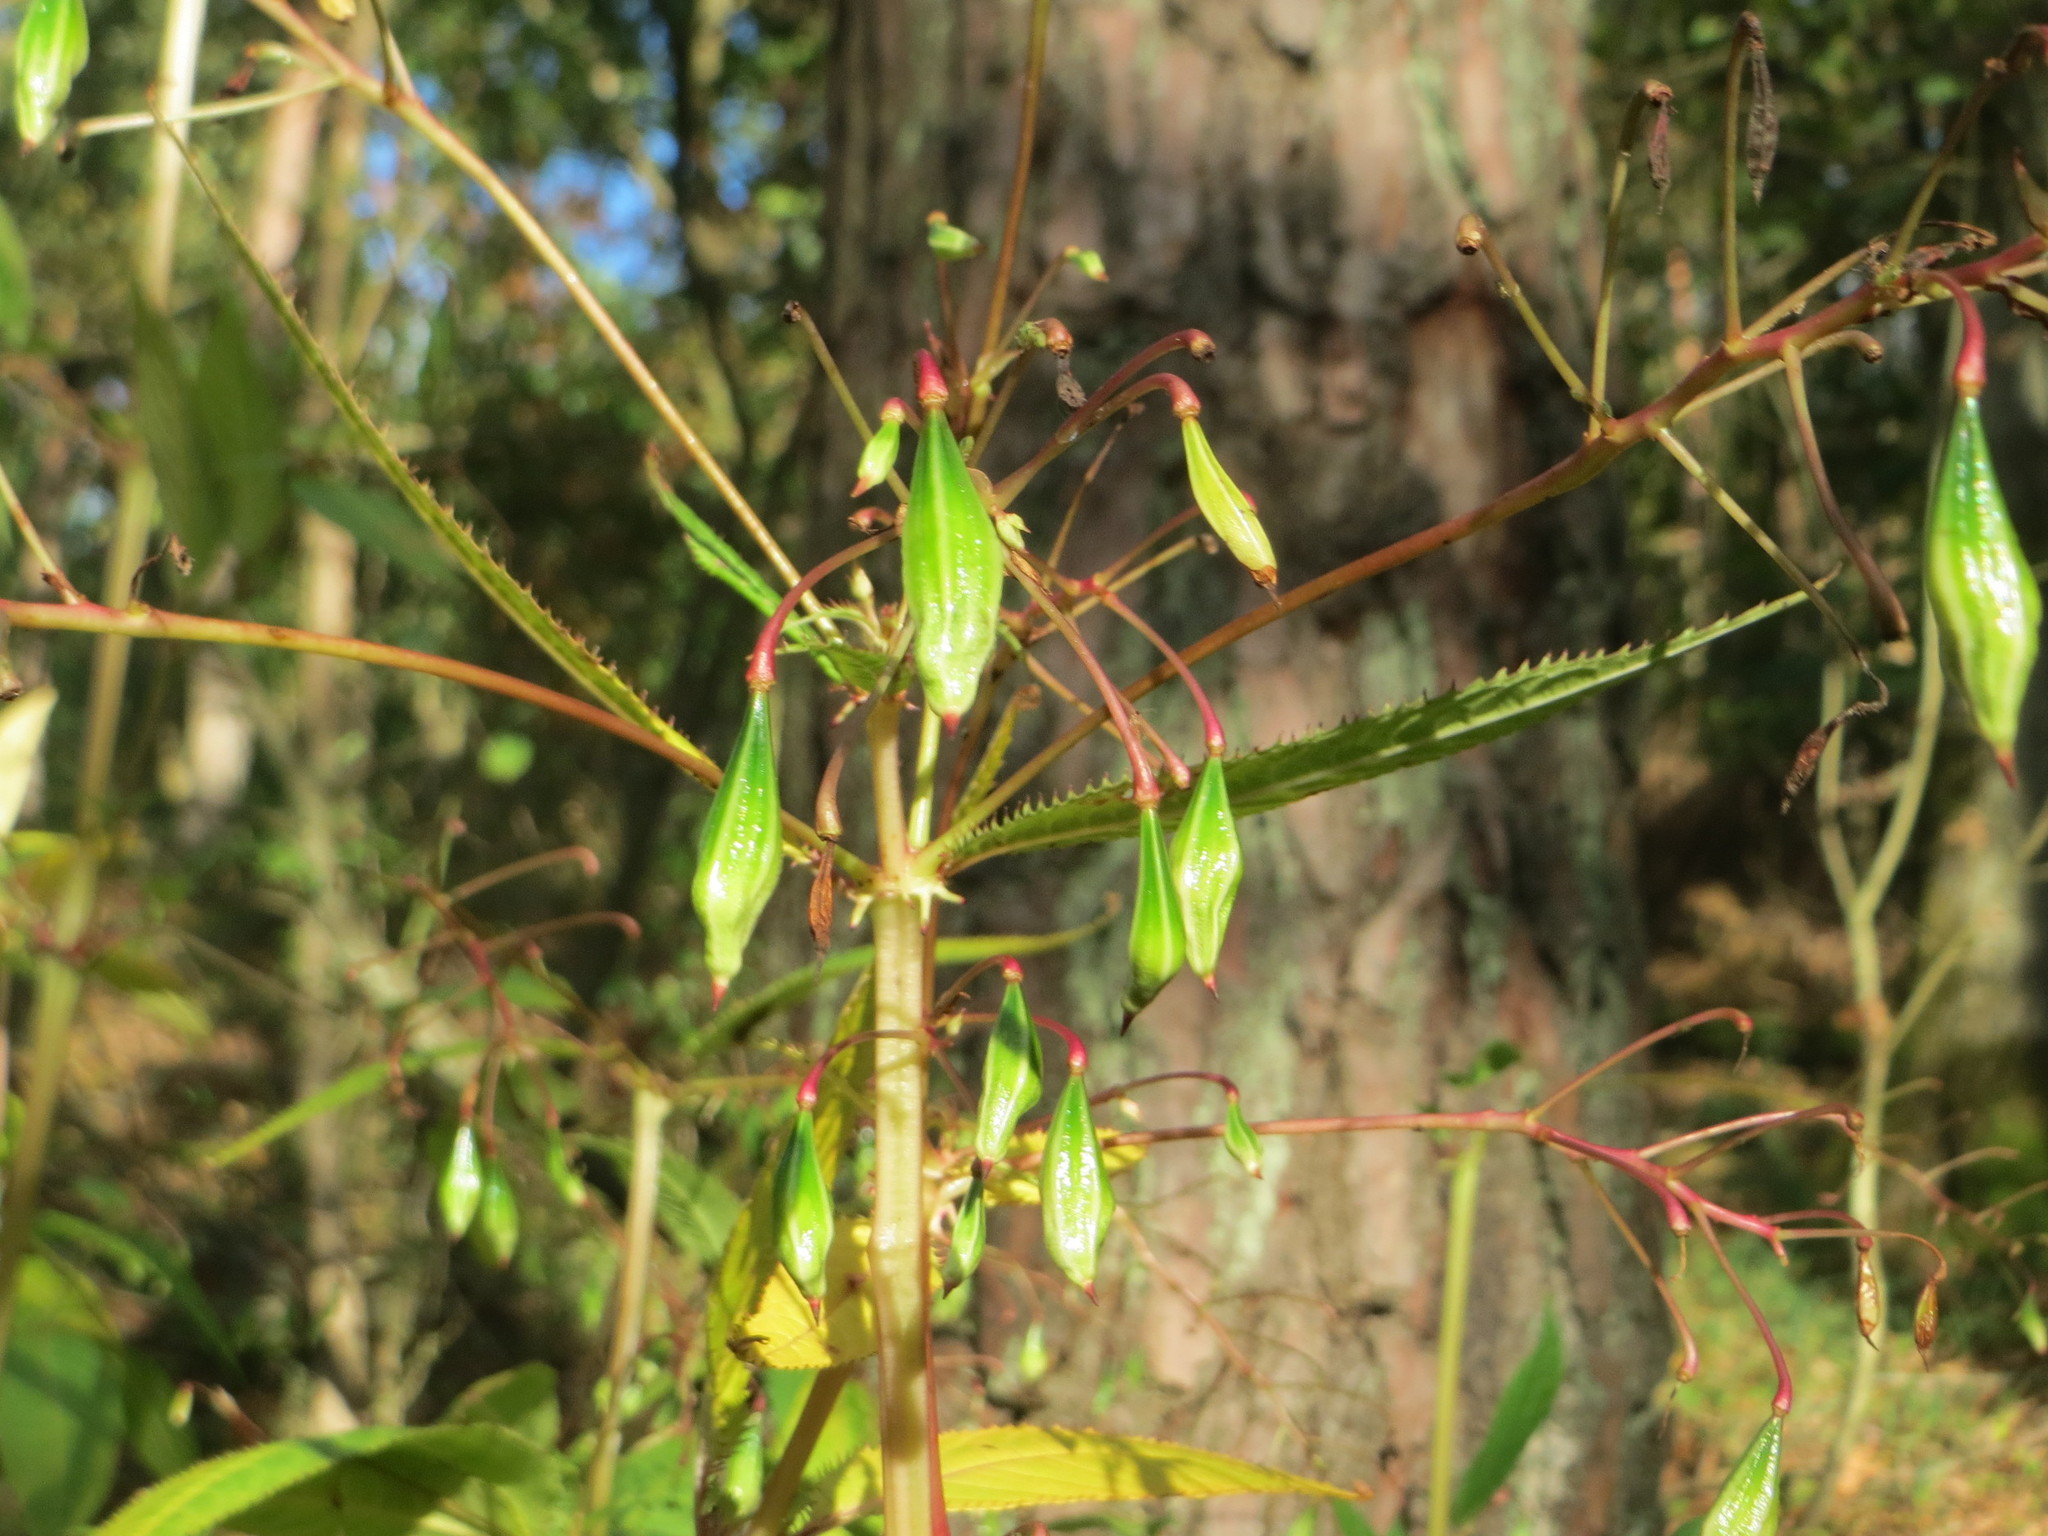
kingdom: Plantae
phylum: Tracheophyta
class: Magnoliopsida
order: Ericales
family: Balsaminaceae
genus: Impatiens
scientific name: Impatiens glandulifera
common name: Himalayan balsam
